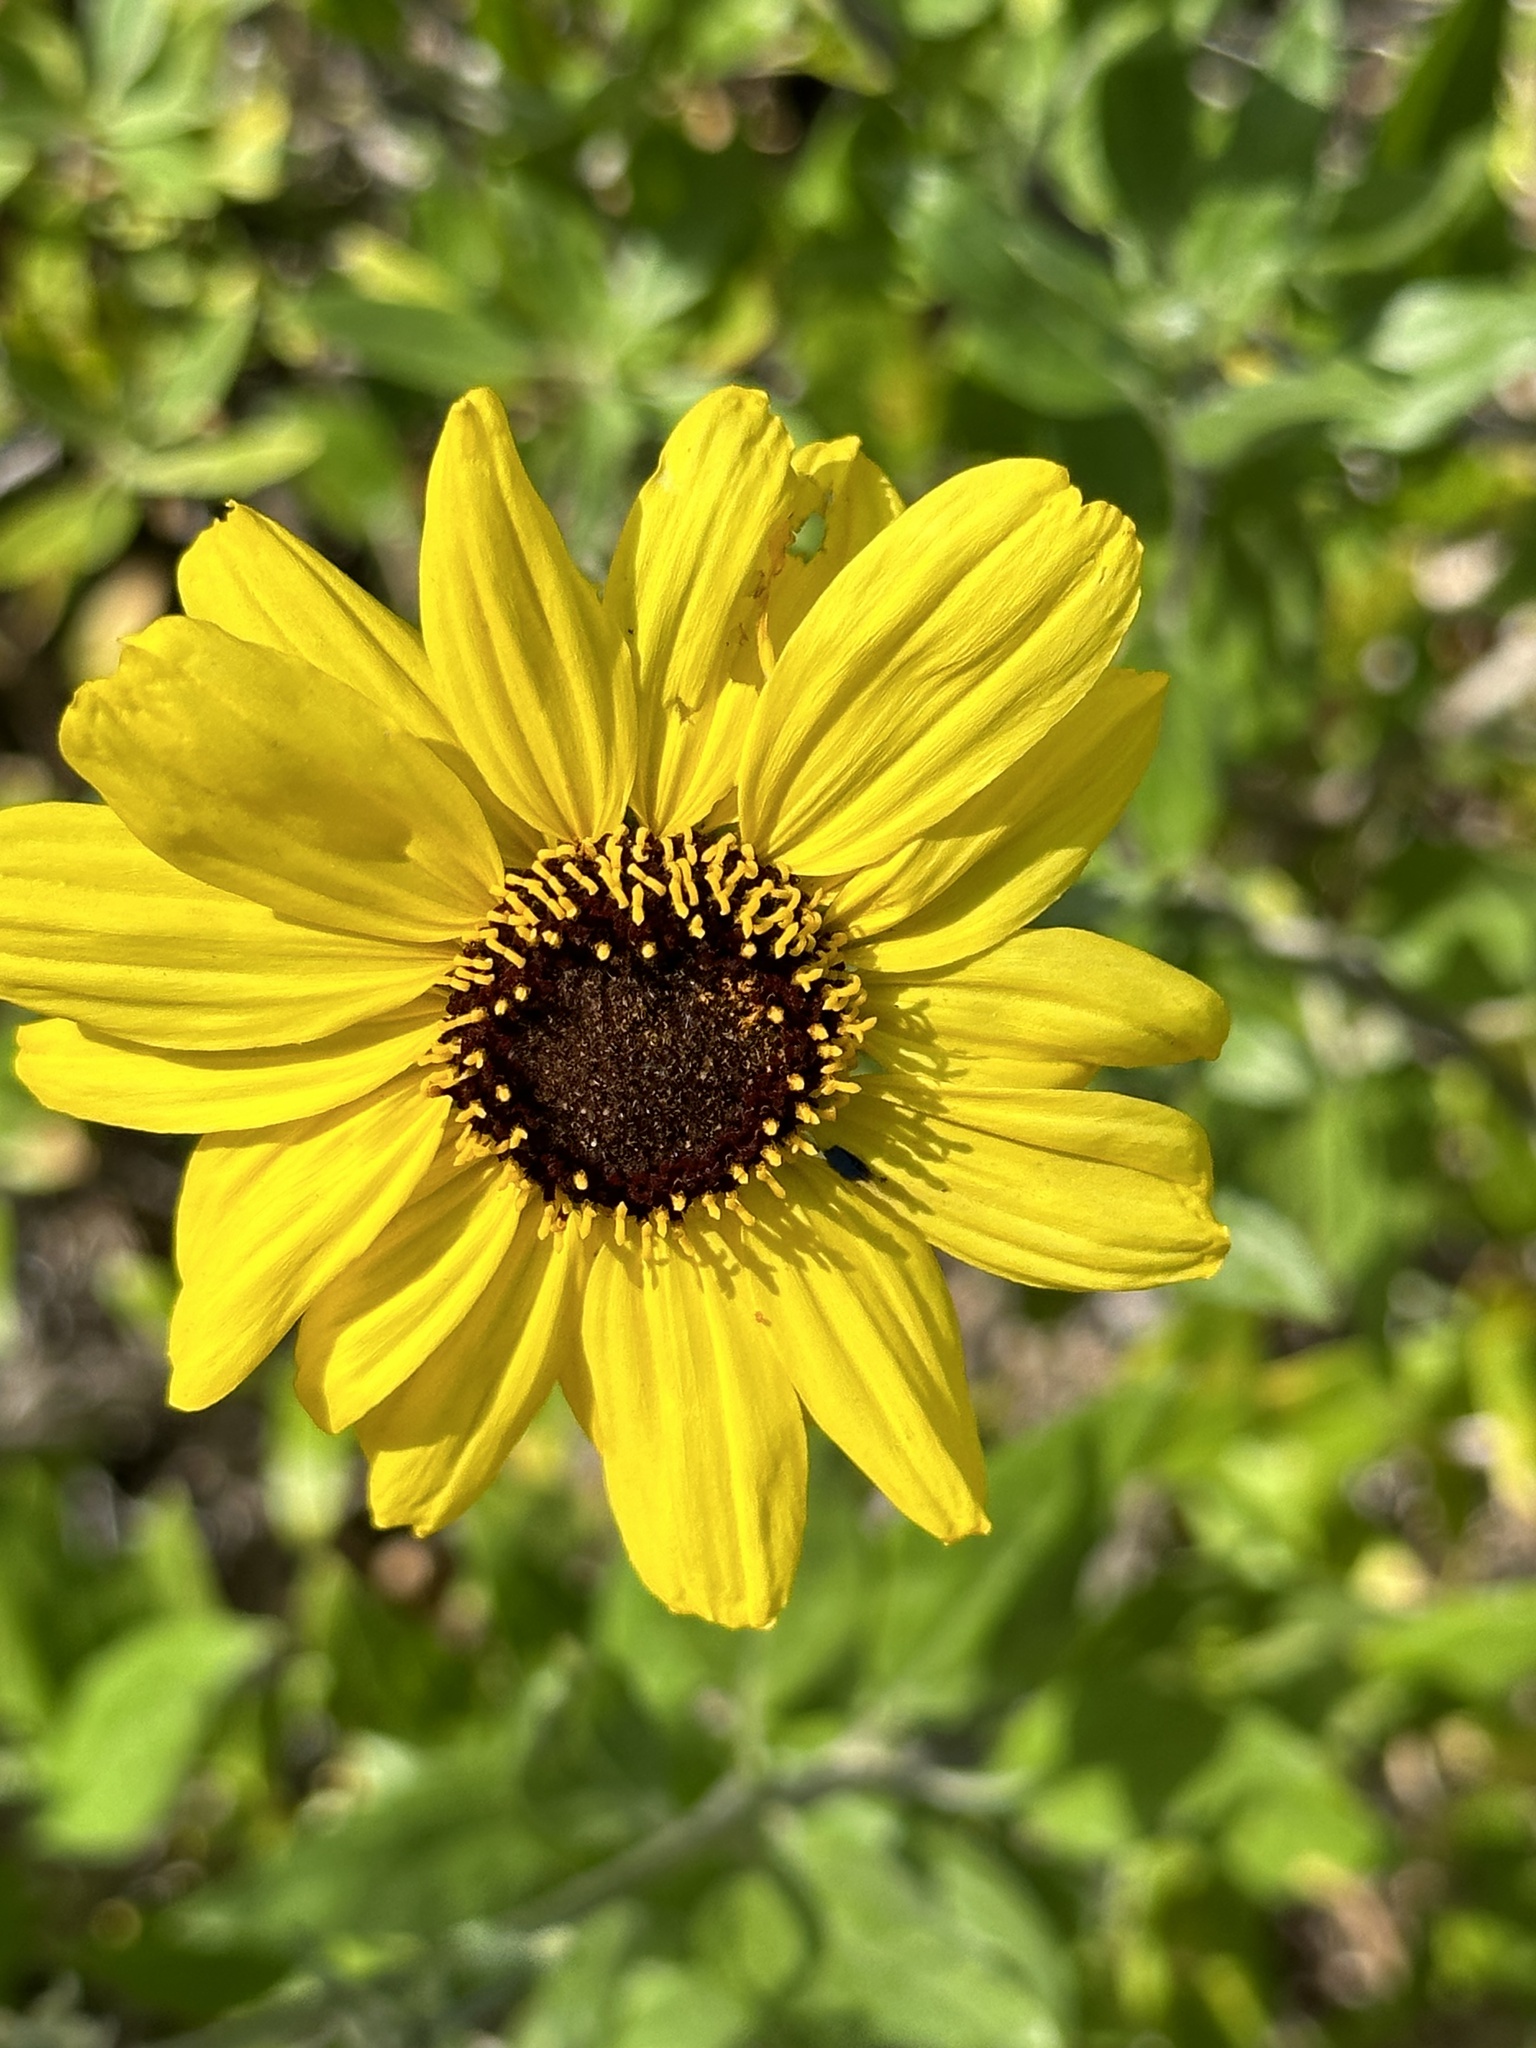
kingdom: Plantae
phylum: Tracheophyta
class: Magnoliopsida
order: Asterales
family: Asteraceae
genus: Encelia
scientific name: Encelia californica
